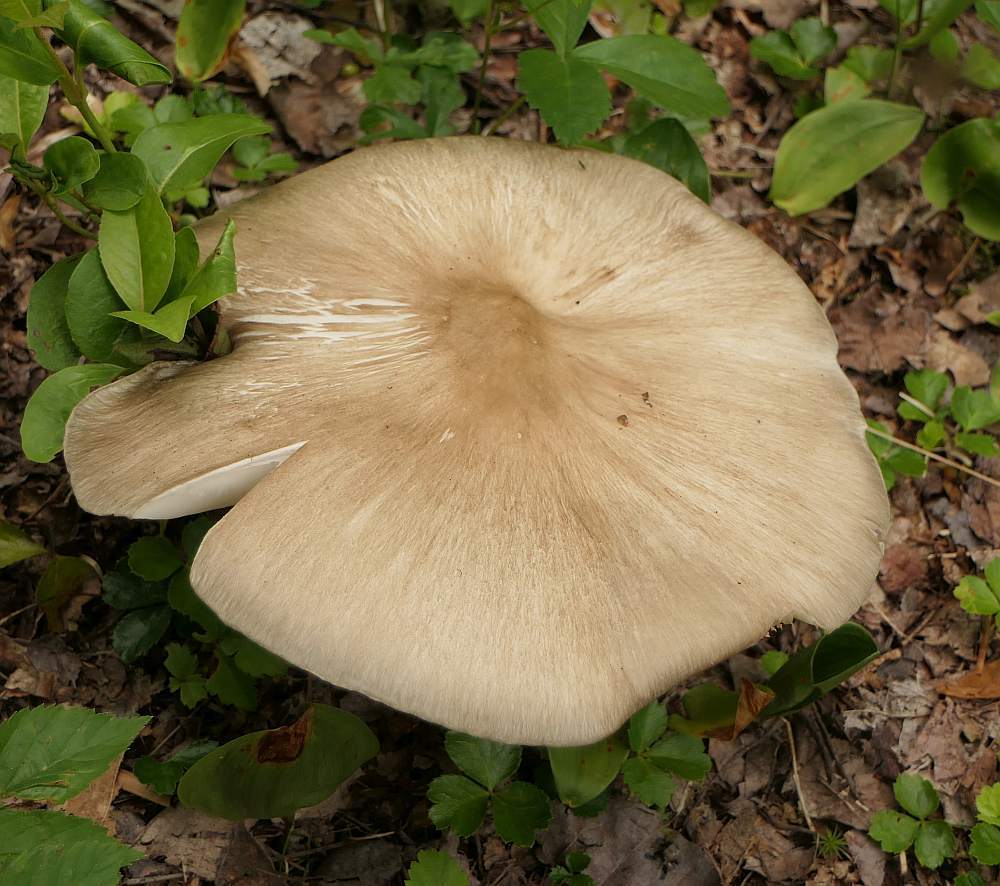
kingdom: Fungi
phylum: Basidiomycota
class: Agaricomycetes
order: Agaricales
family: Tricholomataceae
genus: Megacollybia
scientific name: Megacollybia rodmanii
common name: Eastern american platterful mushroom
